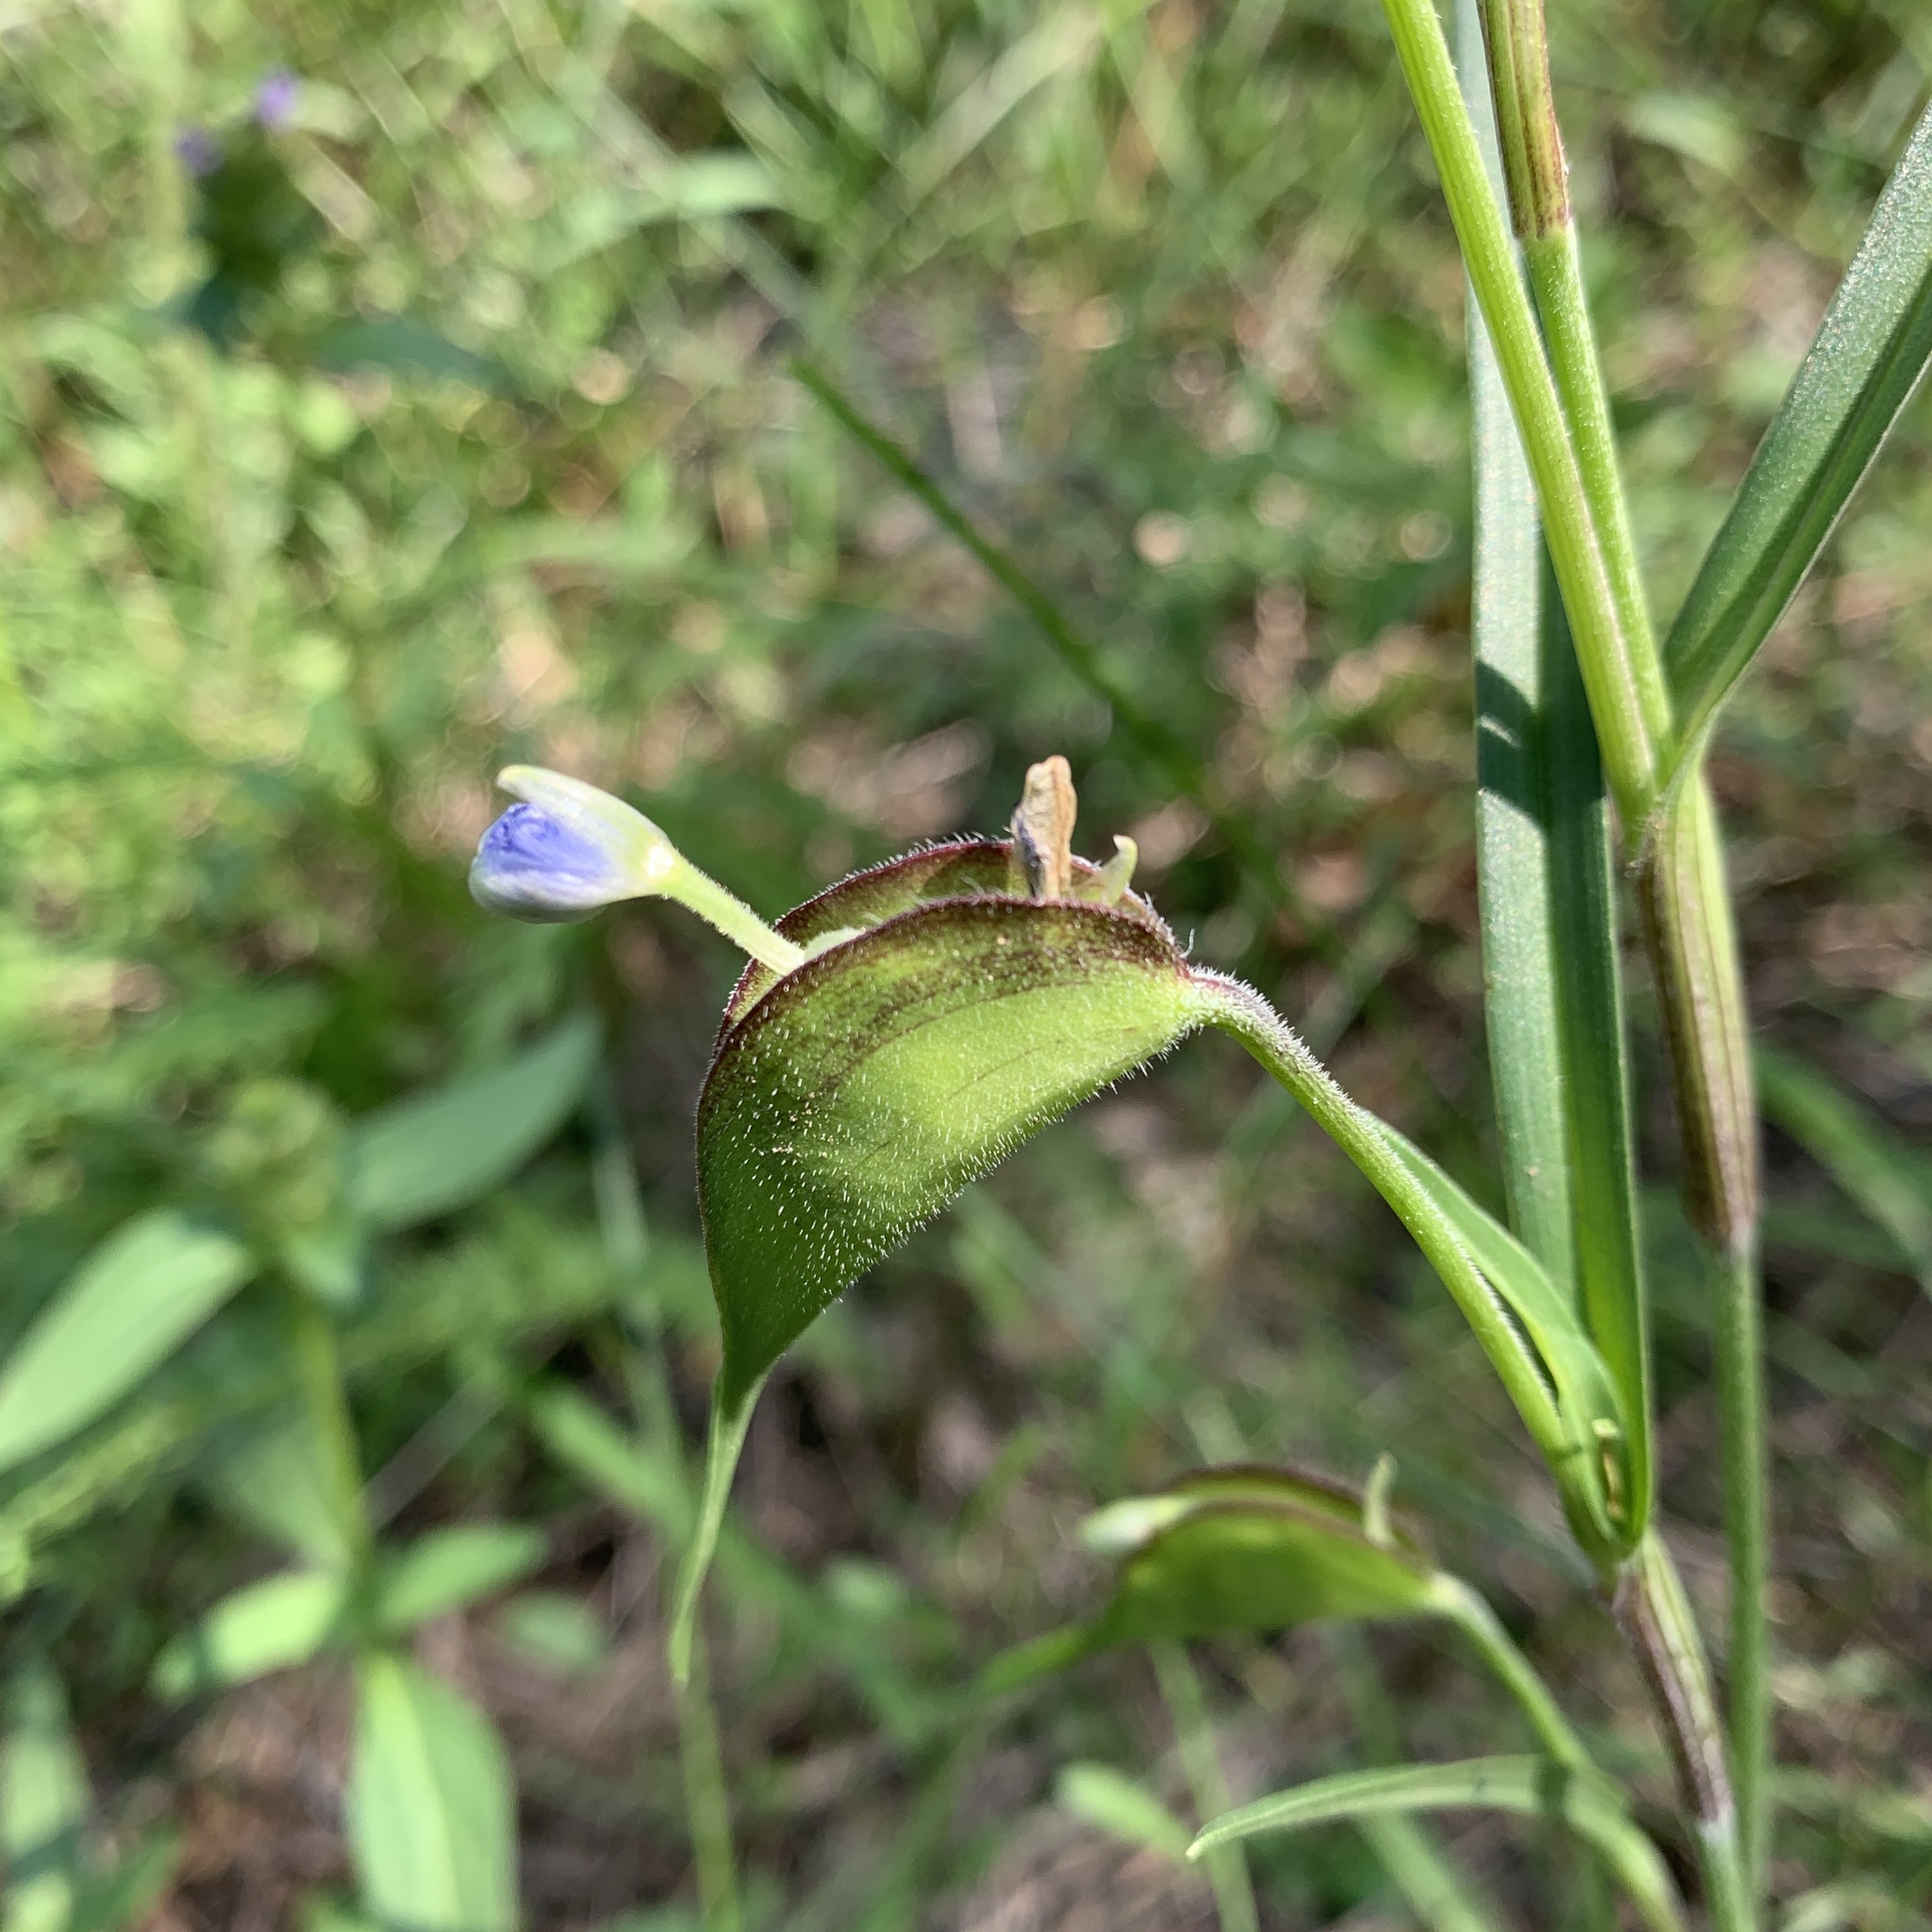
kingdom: Plantae
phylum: Tracheophyta
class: Liliopsida
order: Commelinales
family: Commelinaceae
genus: Commelina
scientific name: Commelina dianthifolia
